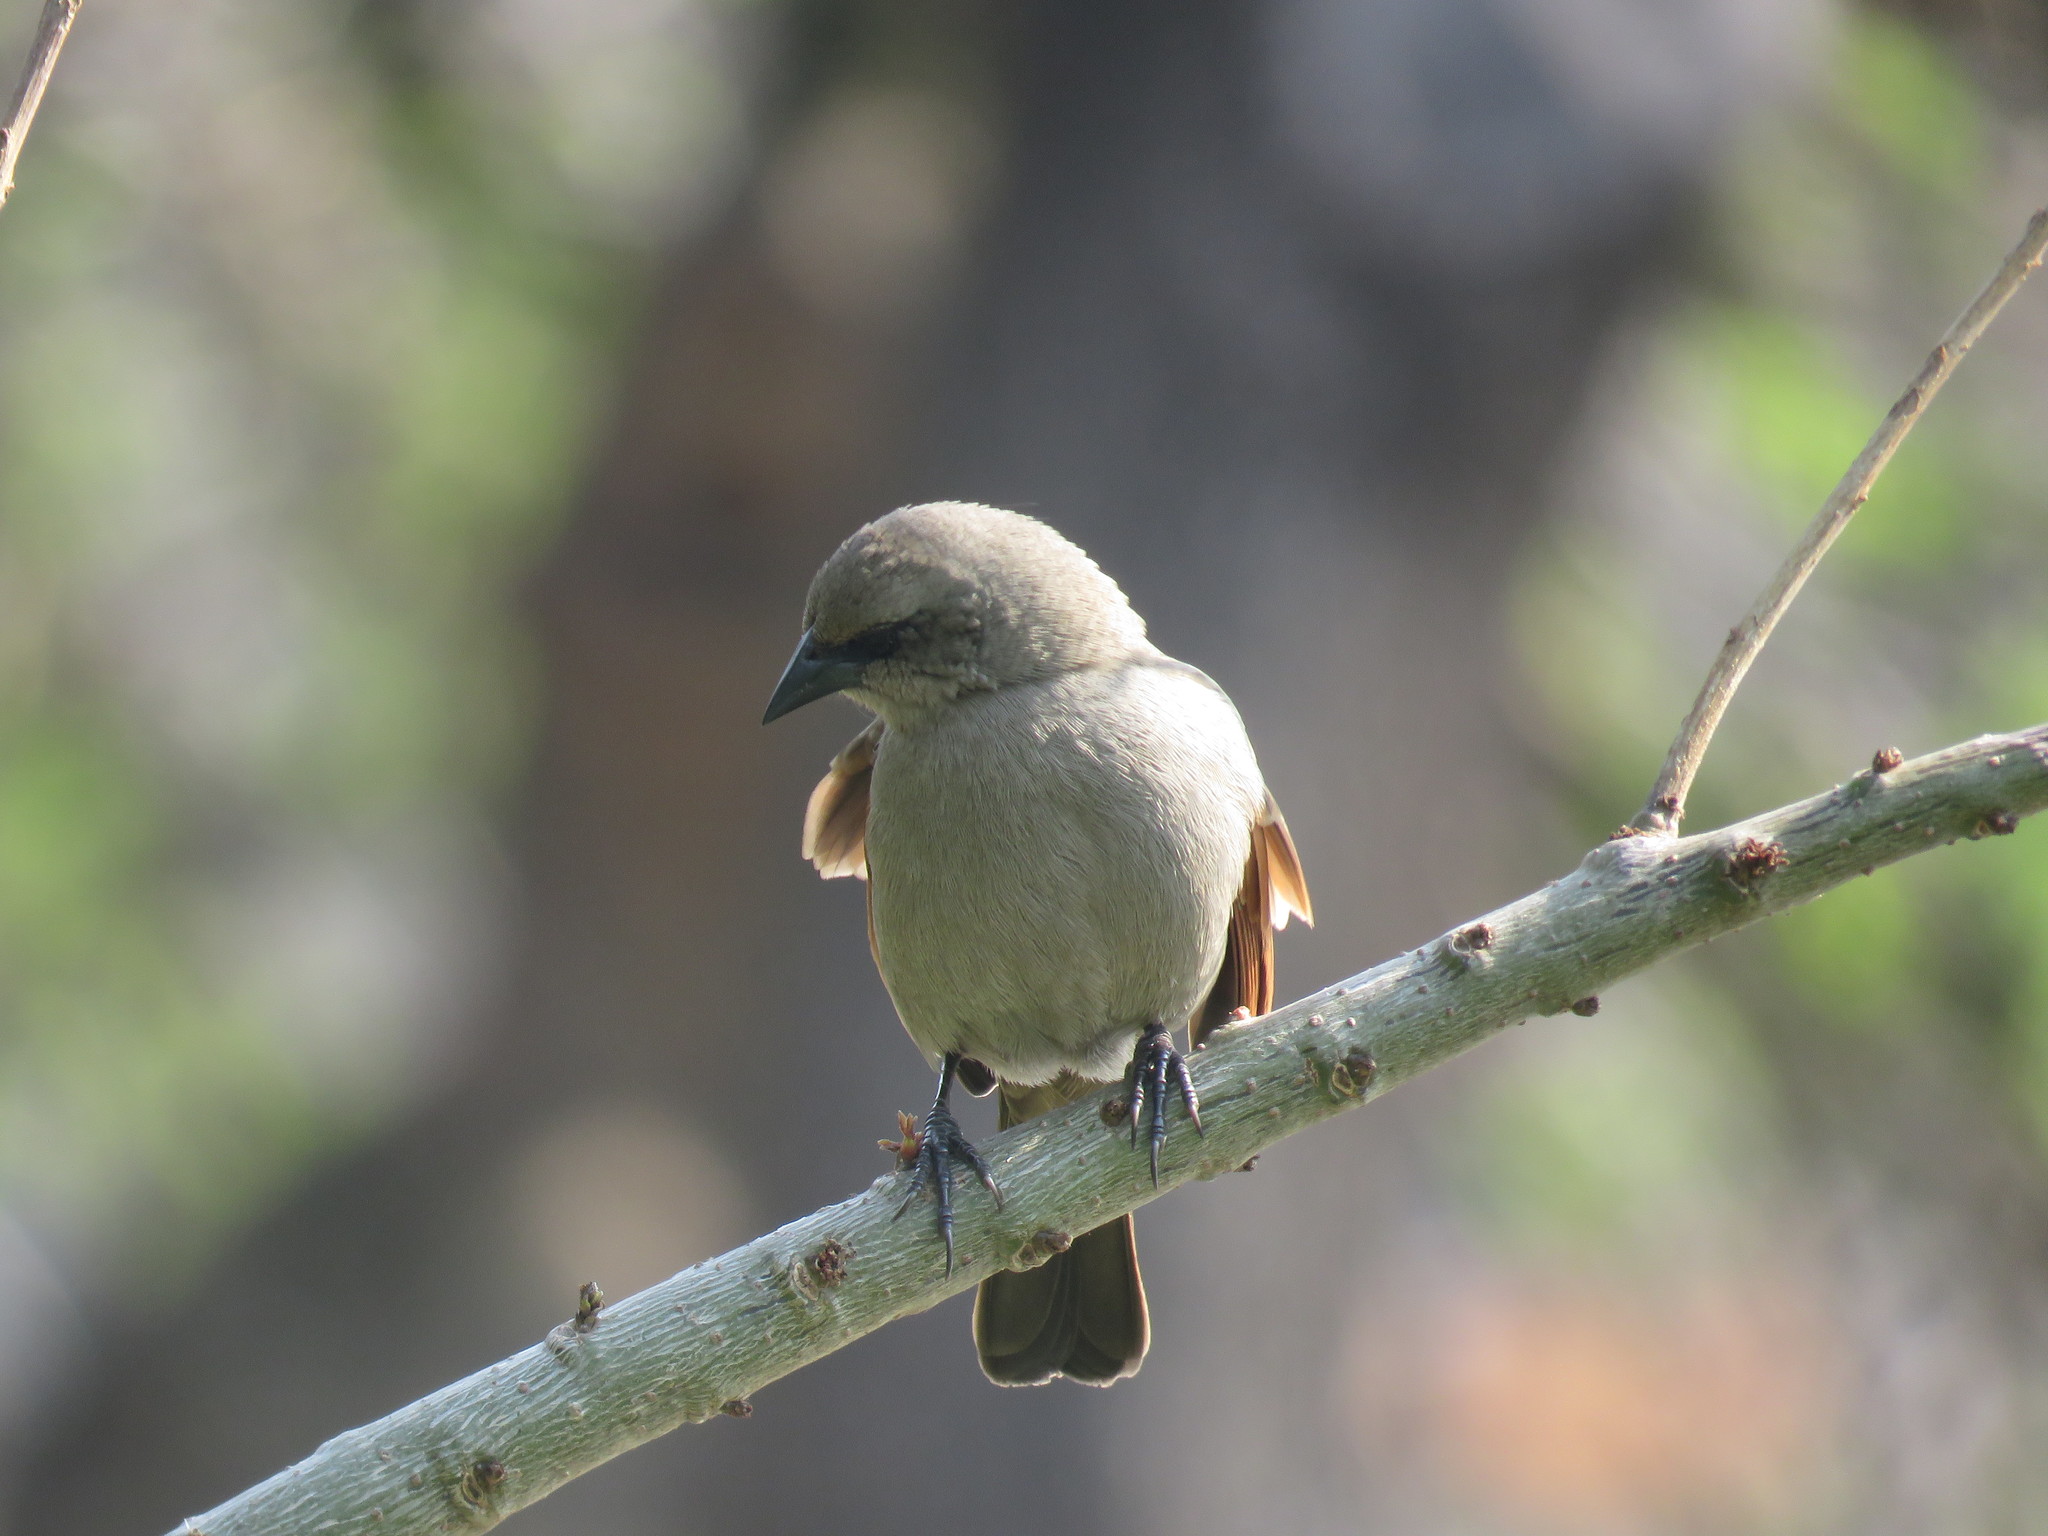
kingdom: Animalia
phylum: Chordata
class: Aves
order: Passeriformes
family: Icteridae
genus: Agelaioides
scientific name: Agelaioides badius
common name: Baywing
